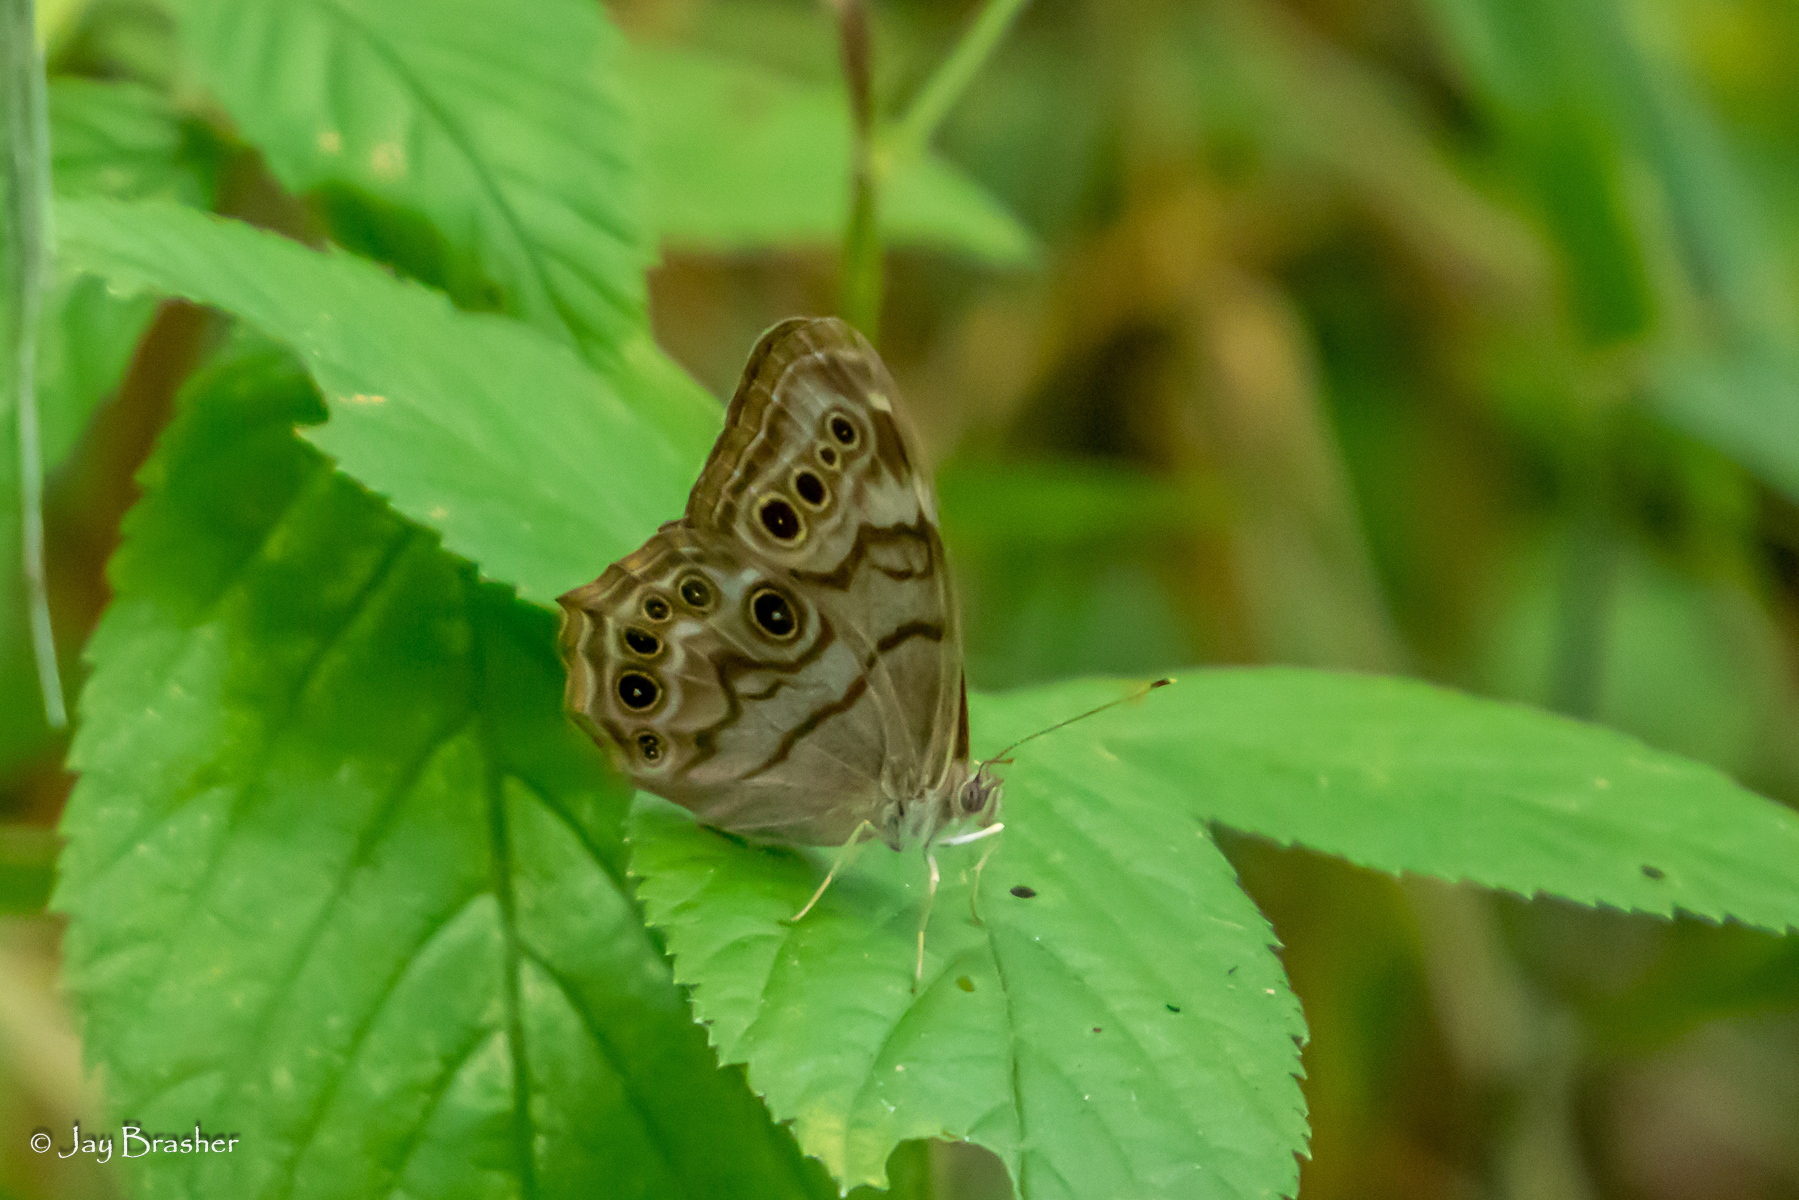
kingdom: Animalia
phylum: Arthropoda
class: Insecta
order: Lepidoptera
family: Nymphalidae
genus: Lethe
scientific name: Lethe anthedon
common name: Northern pearly-eye
